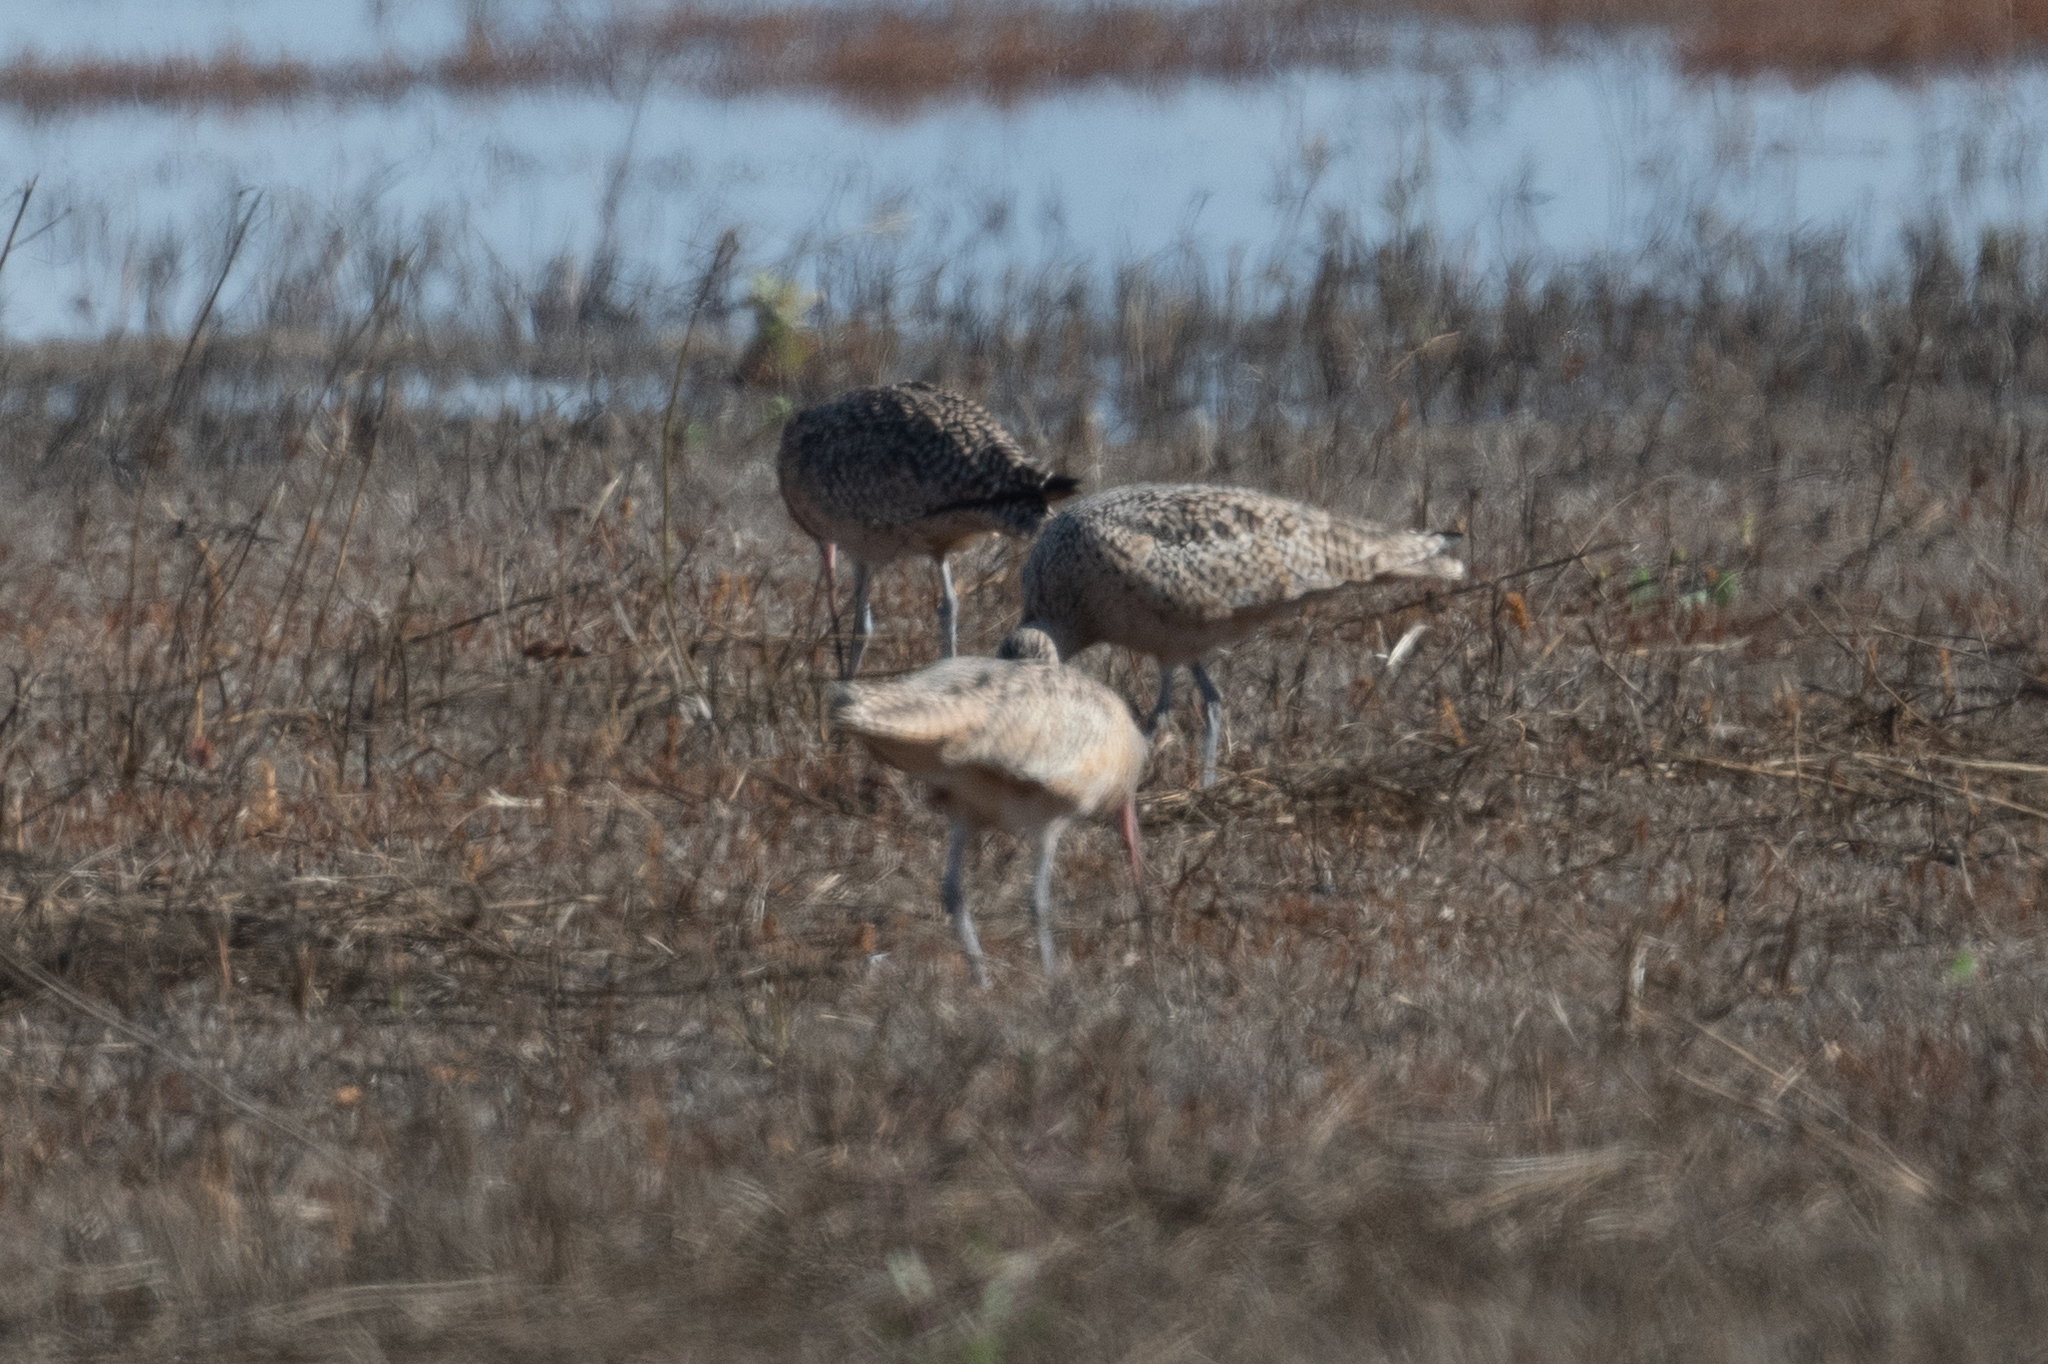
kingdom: Animalia
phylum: Chordata
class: Aves
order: Charadriiformes
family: Scolopacidae
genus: Numenius
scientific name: Numenius americanus
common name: Long-billed curlew
